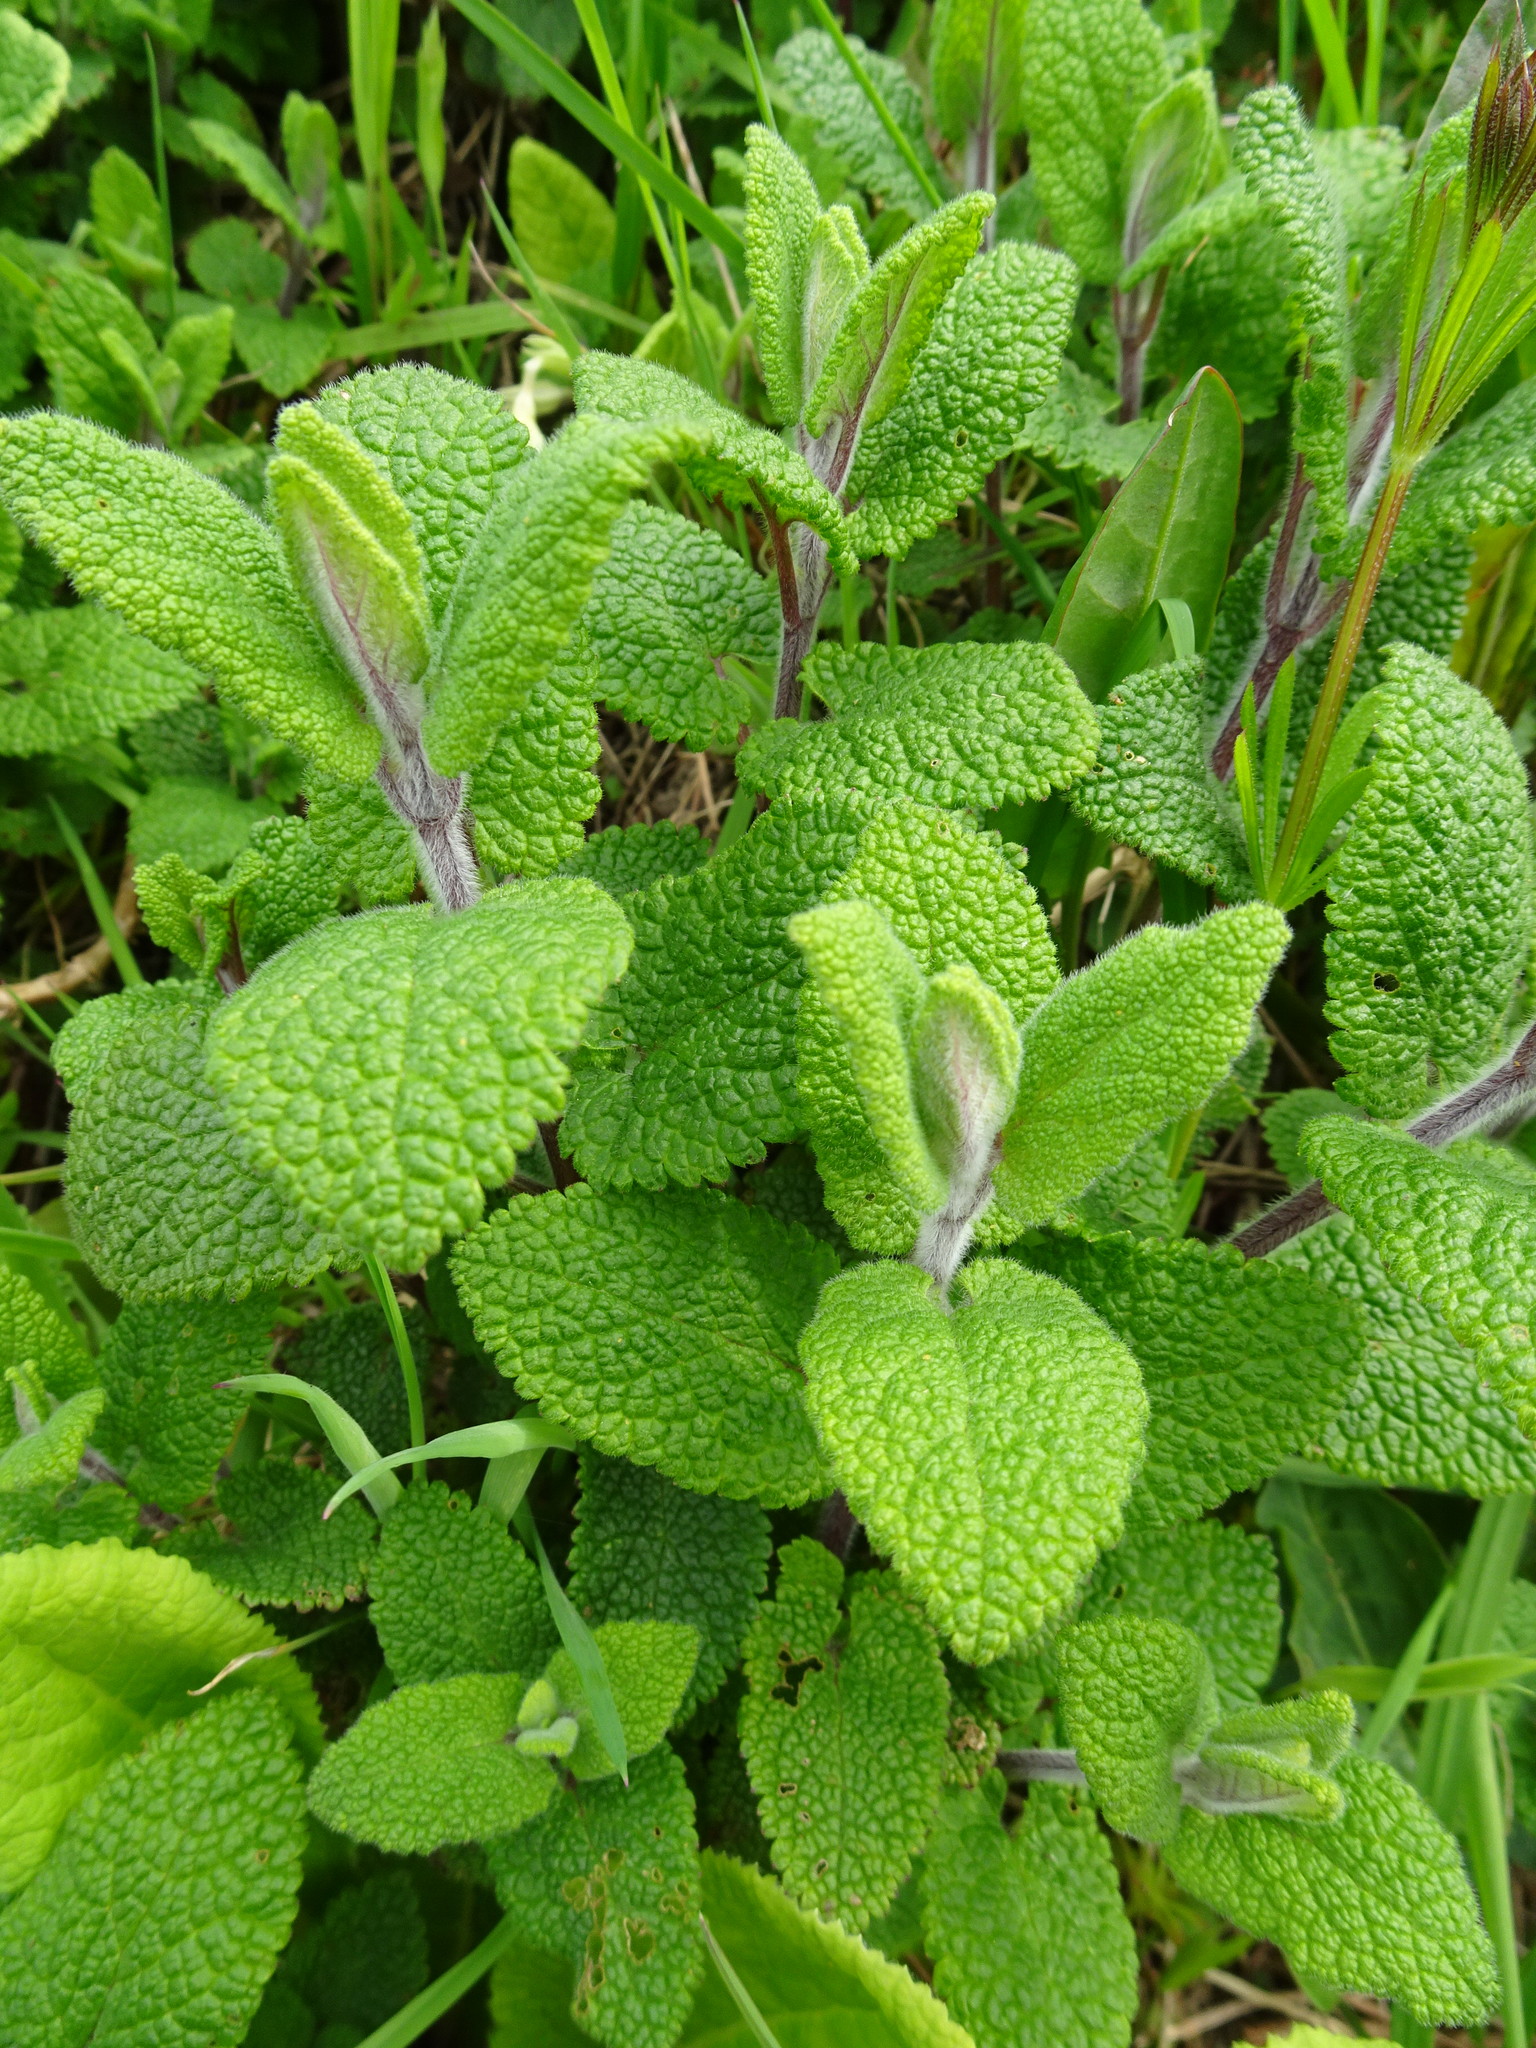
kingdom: Plantae
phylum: Tracheophyta
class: Magnoliopsida
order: Lamiales
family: Lamiaceae
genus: Teucrium
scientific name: Teucrium scorodonia
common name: Woodland germander
